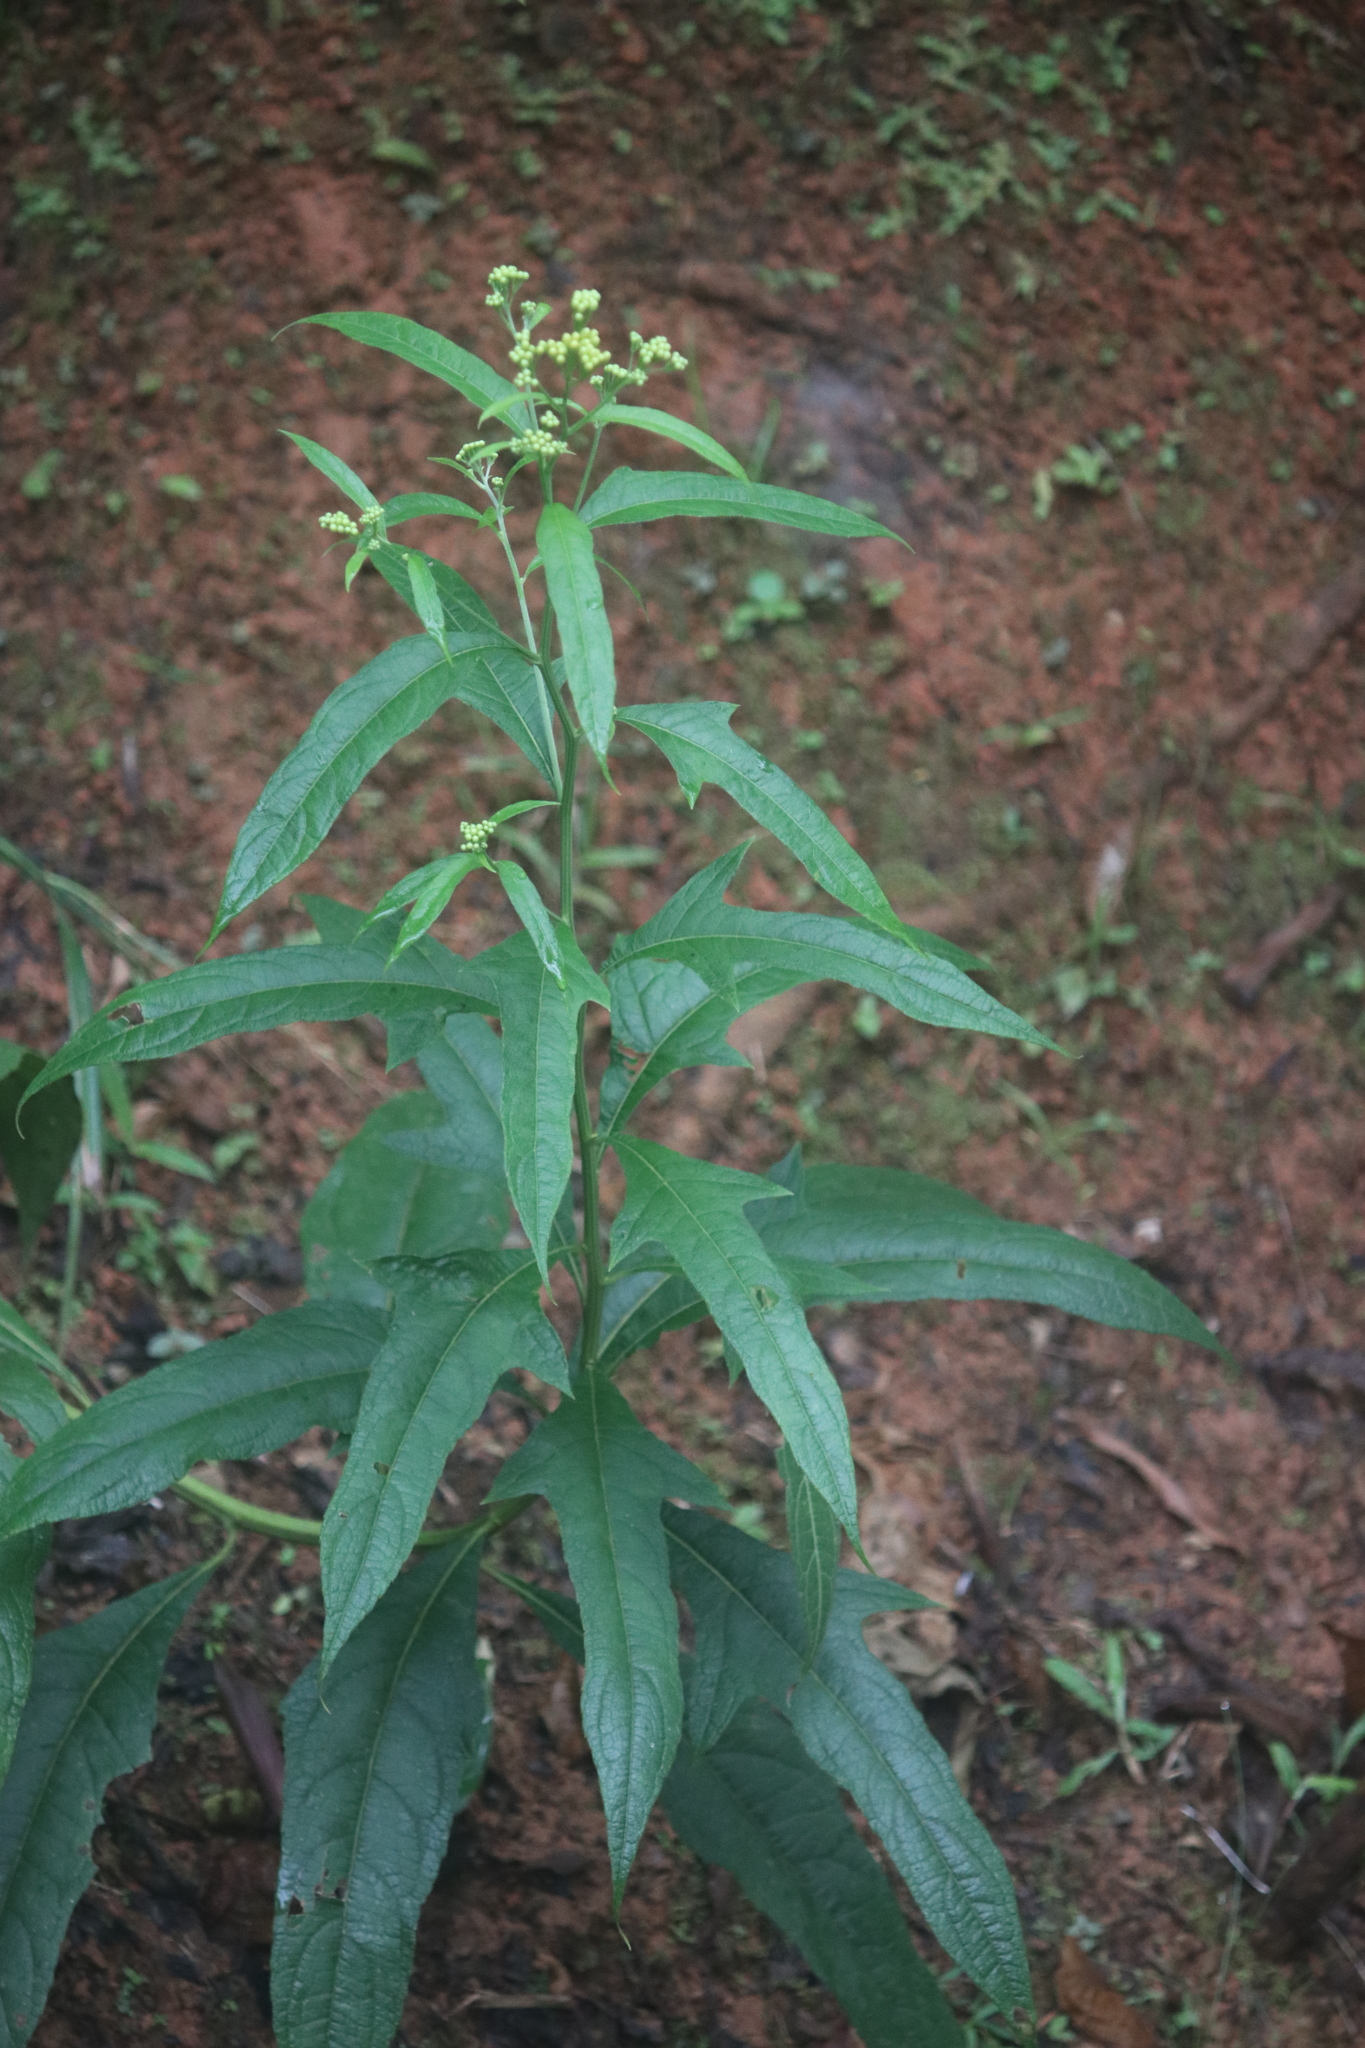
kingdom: Plantae
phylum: Tracheophyta
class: Magnoliopsida
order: Asterales
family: Asteraceae
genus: Neurolaena
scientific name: Neurolaena lobata
